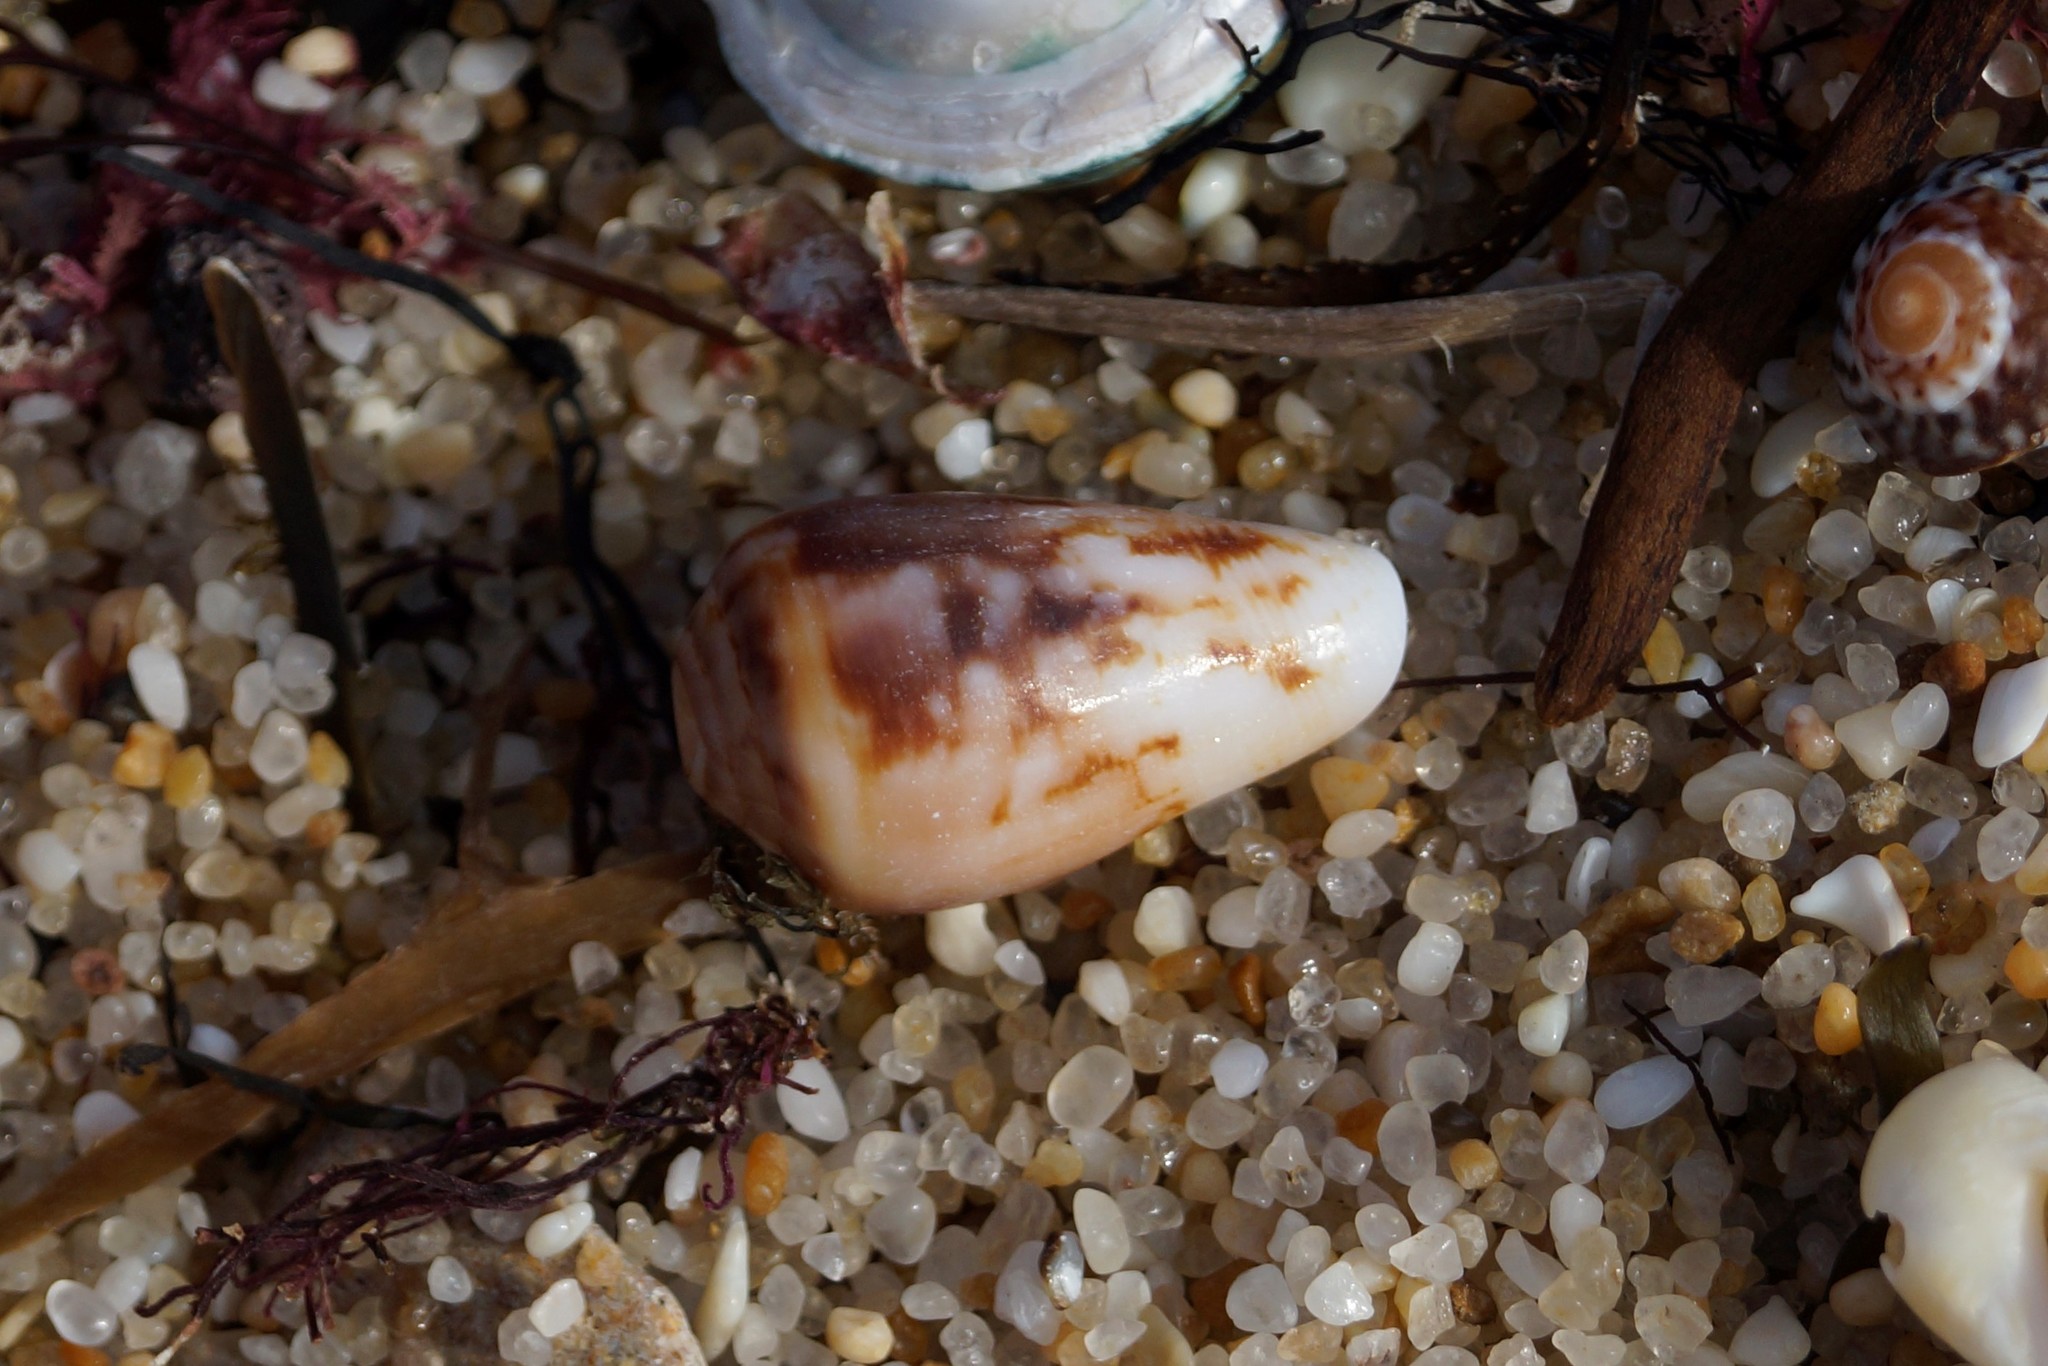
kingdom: Animalia
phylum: Mollusca
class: Gastropoda
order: Neogastropoda
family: Conidae
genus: Conus
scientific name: Conus anemone
